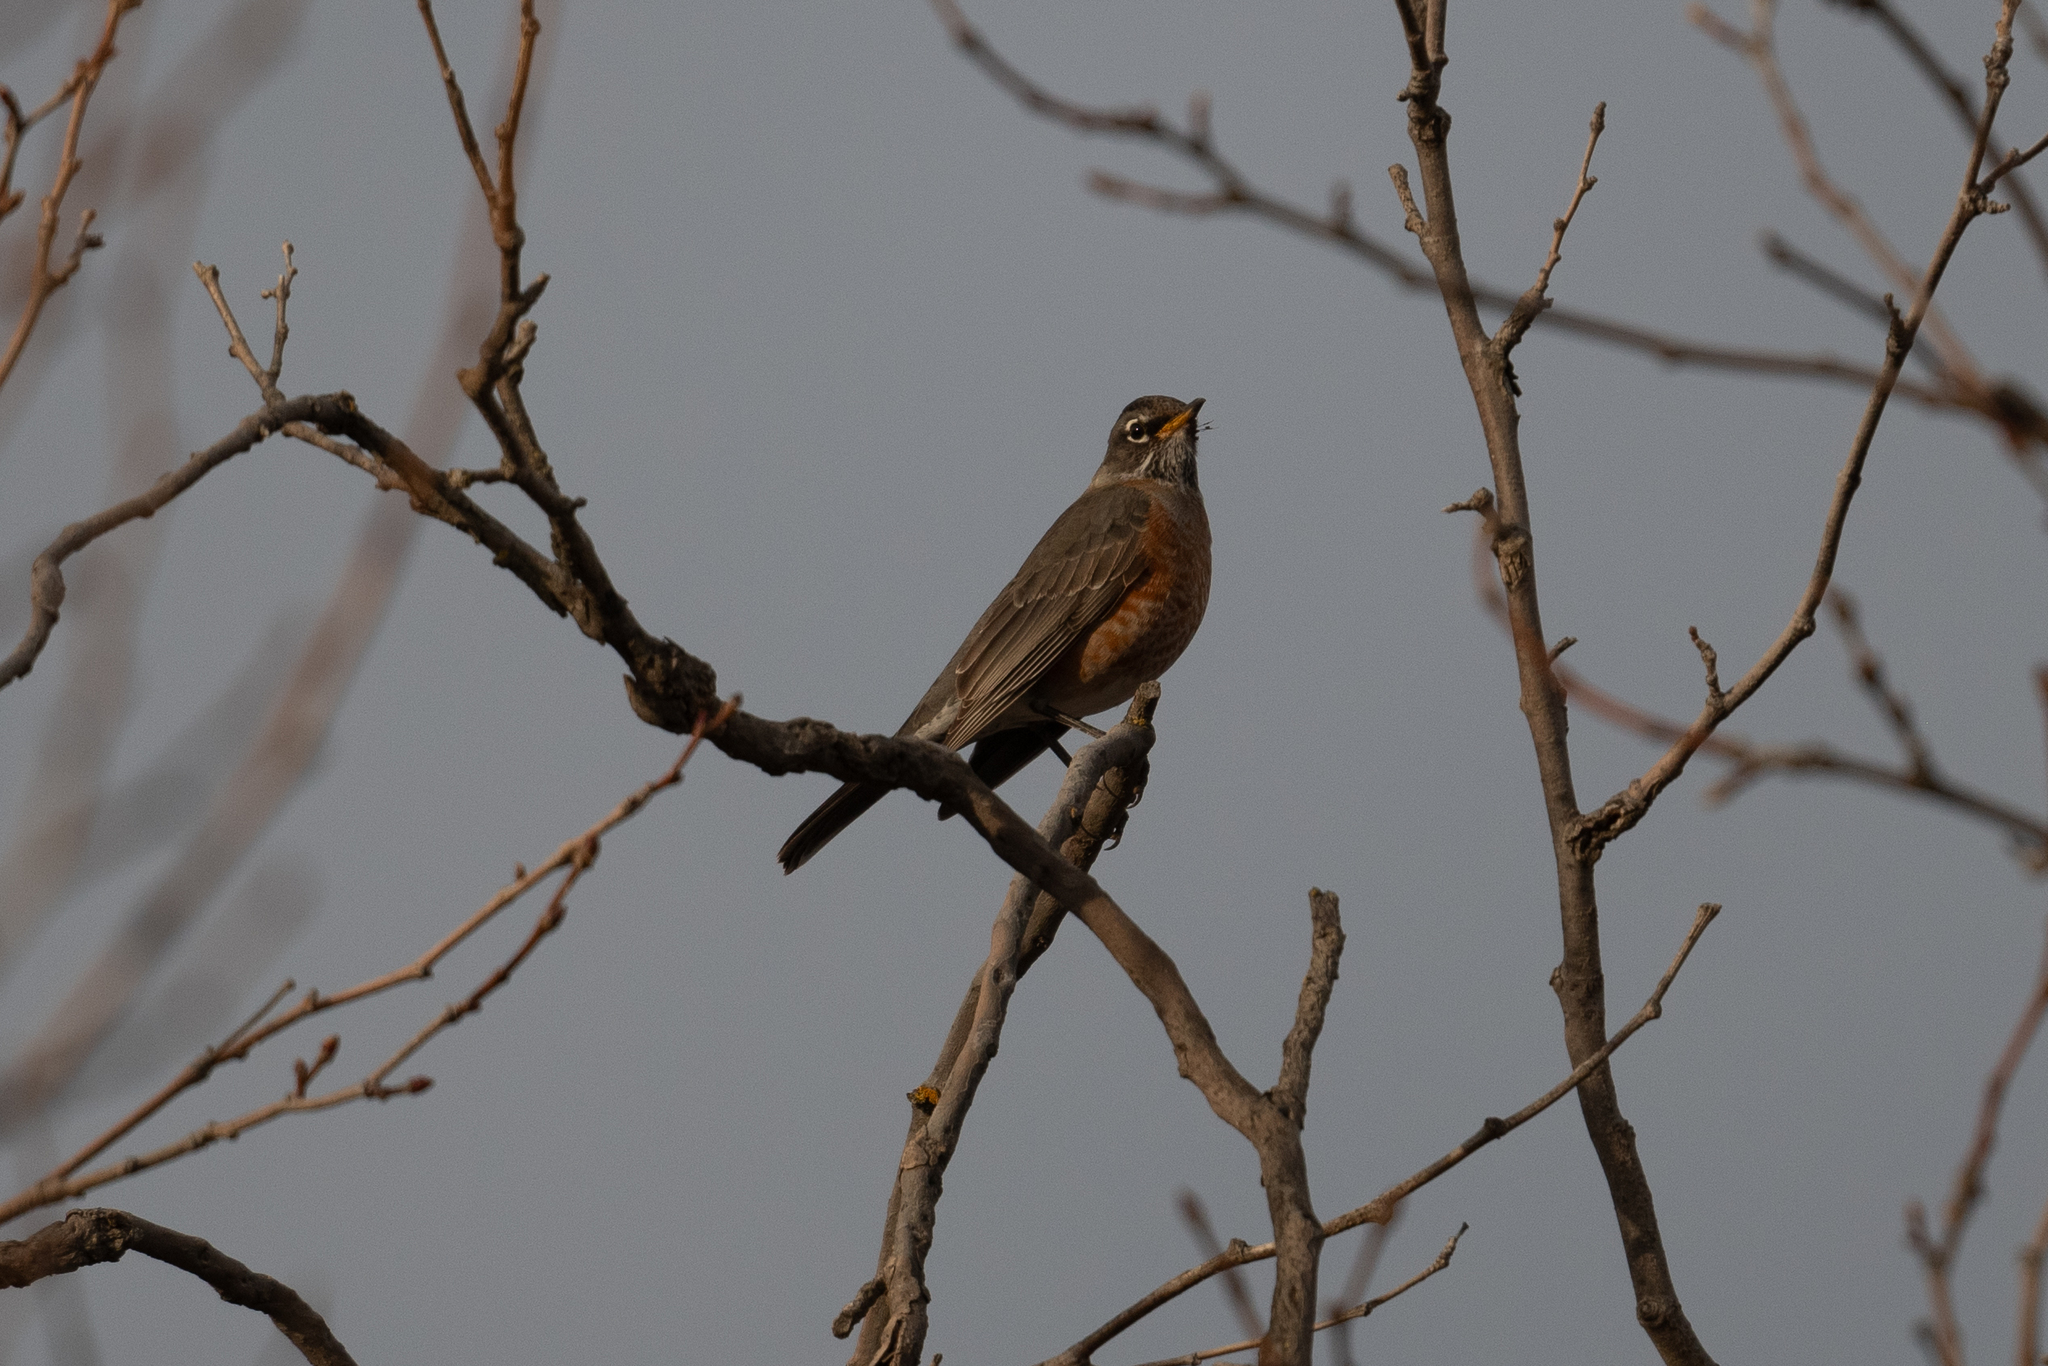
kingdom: Animalia
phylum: Chordata
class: Aves
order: Passeriformes
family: Turdidae
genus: Turdus
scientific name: Turdus migratorius
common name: American robin
